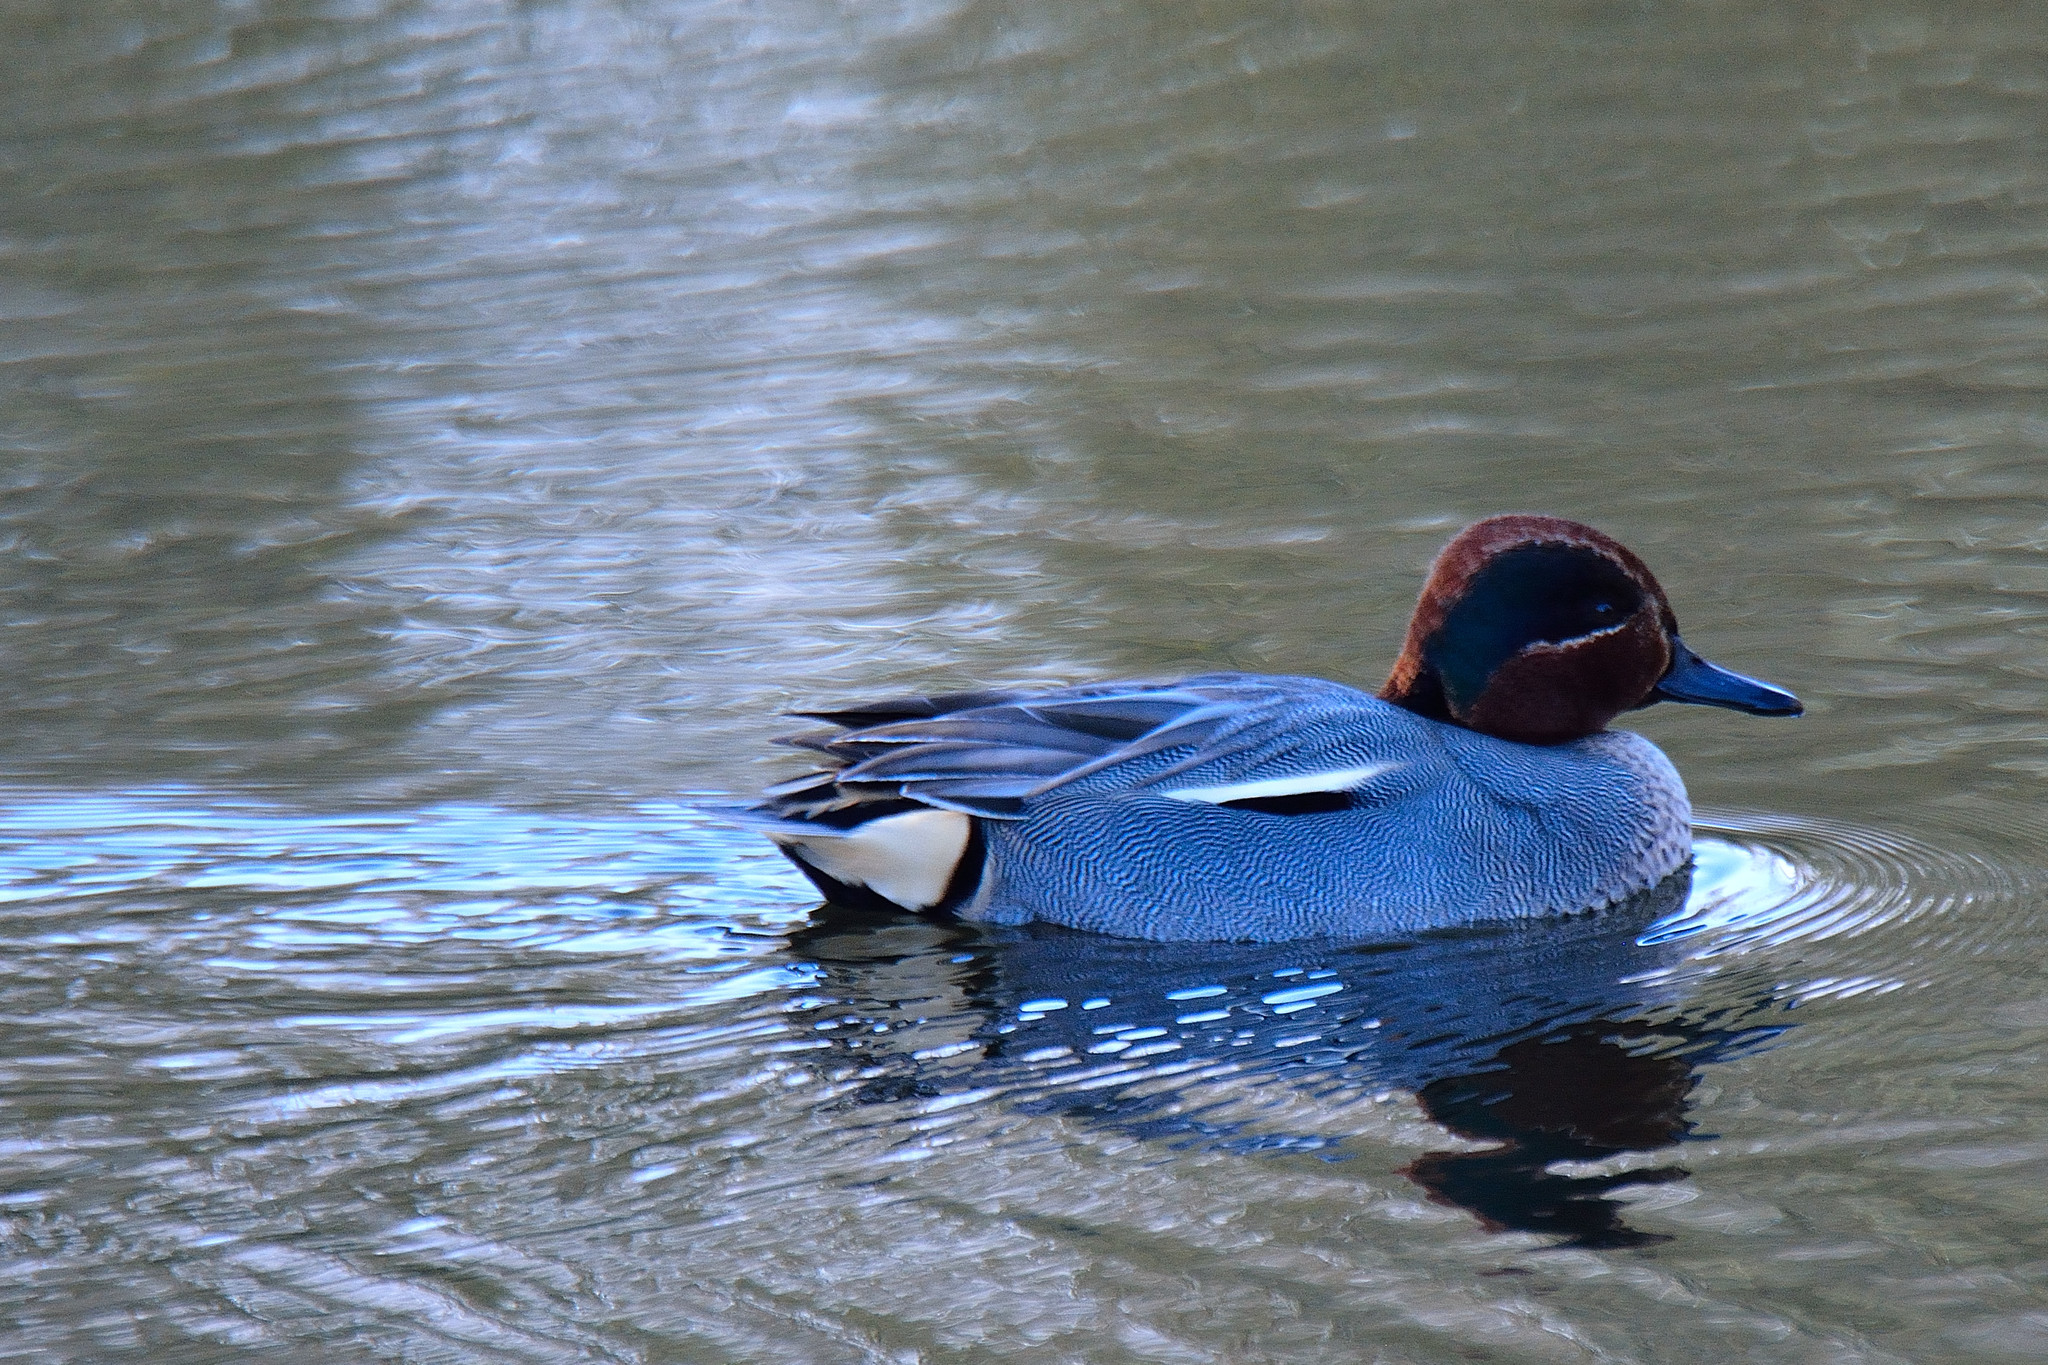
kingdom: Animalia
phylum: Chordata
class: Aves
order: Anseriformes
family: Anatidae
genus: Anas
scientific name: Anas crecca
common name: Eurasian teal
